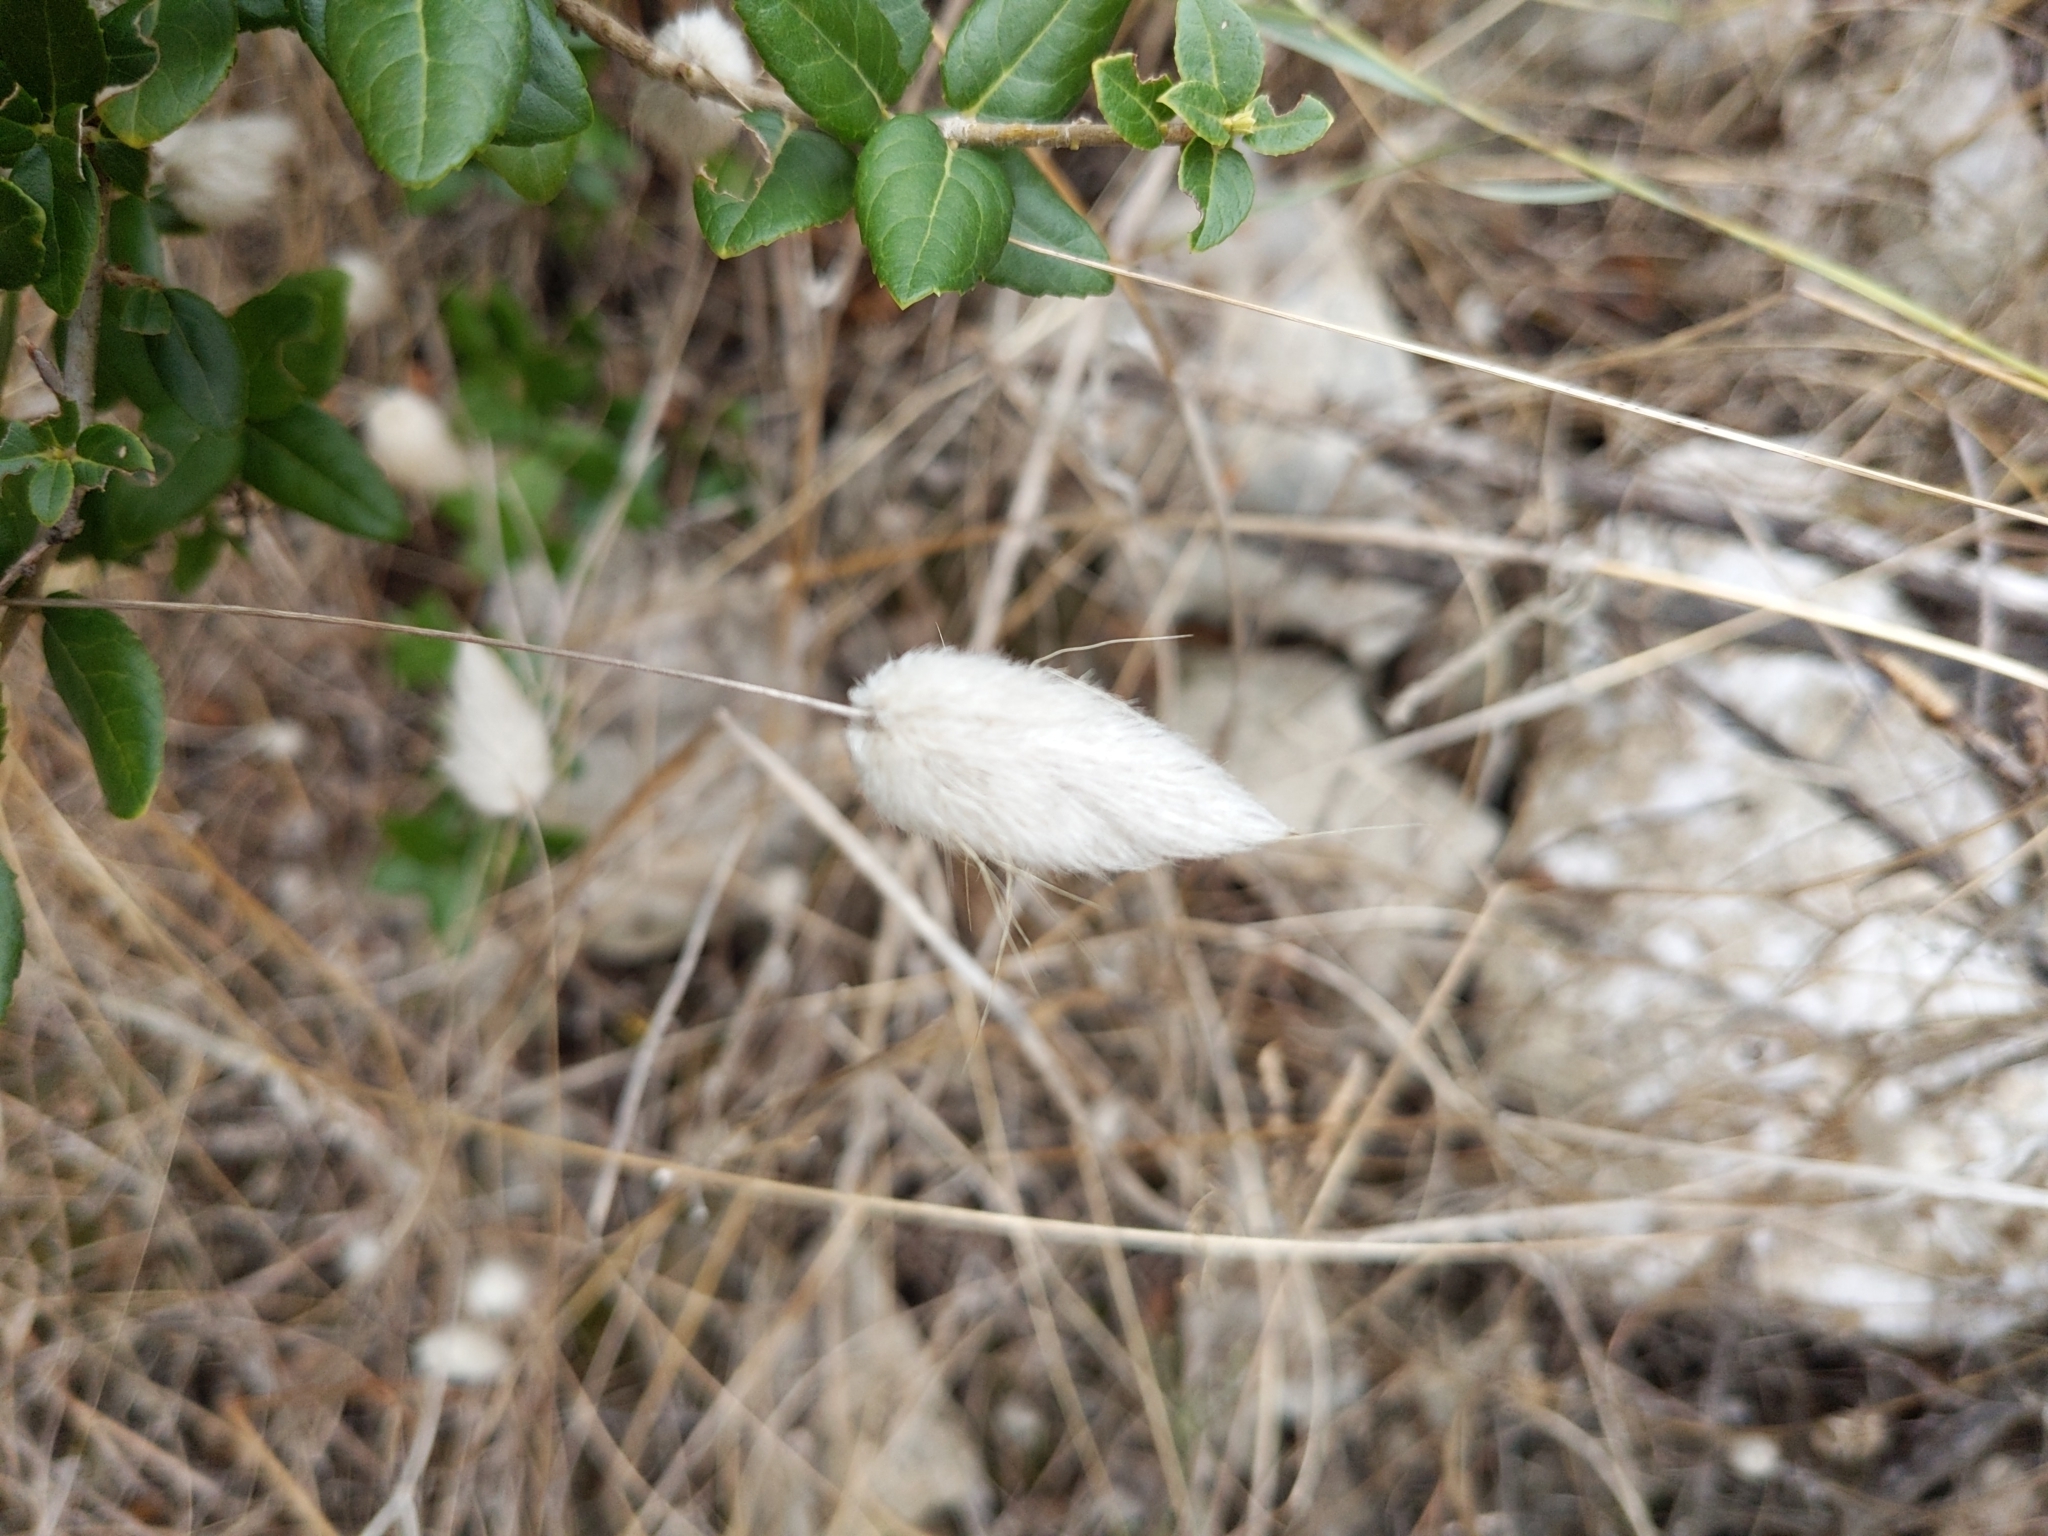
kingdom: Plantae
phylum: Tracheophyta
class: Liliopsida
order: Poales
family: Poaceae
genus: Lagurus
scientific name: Lagurus ovatus
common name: Hare's-tail
